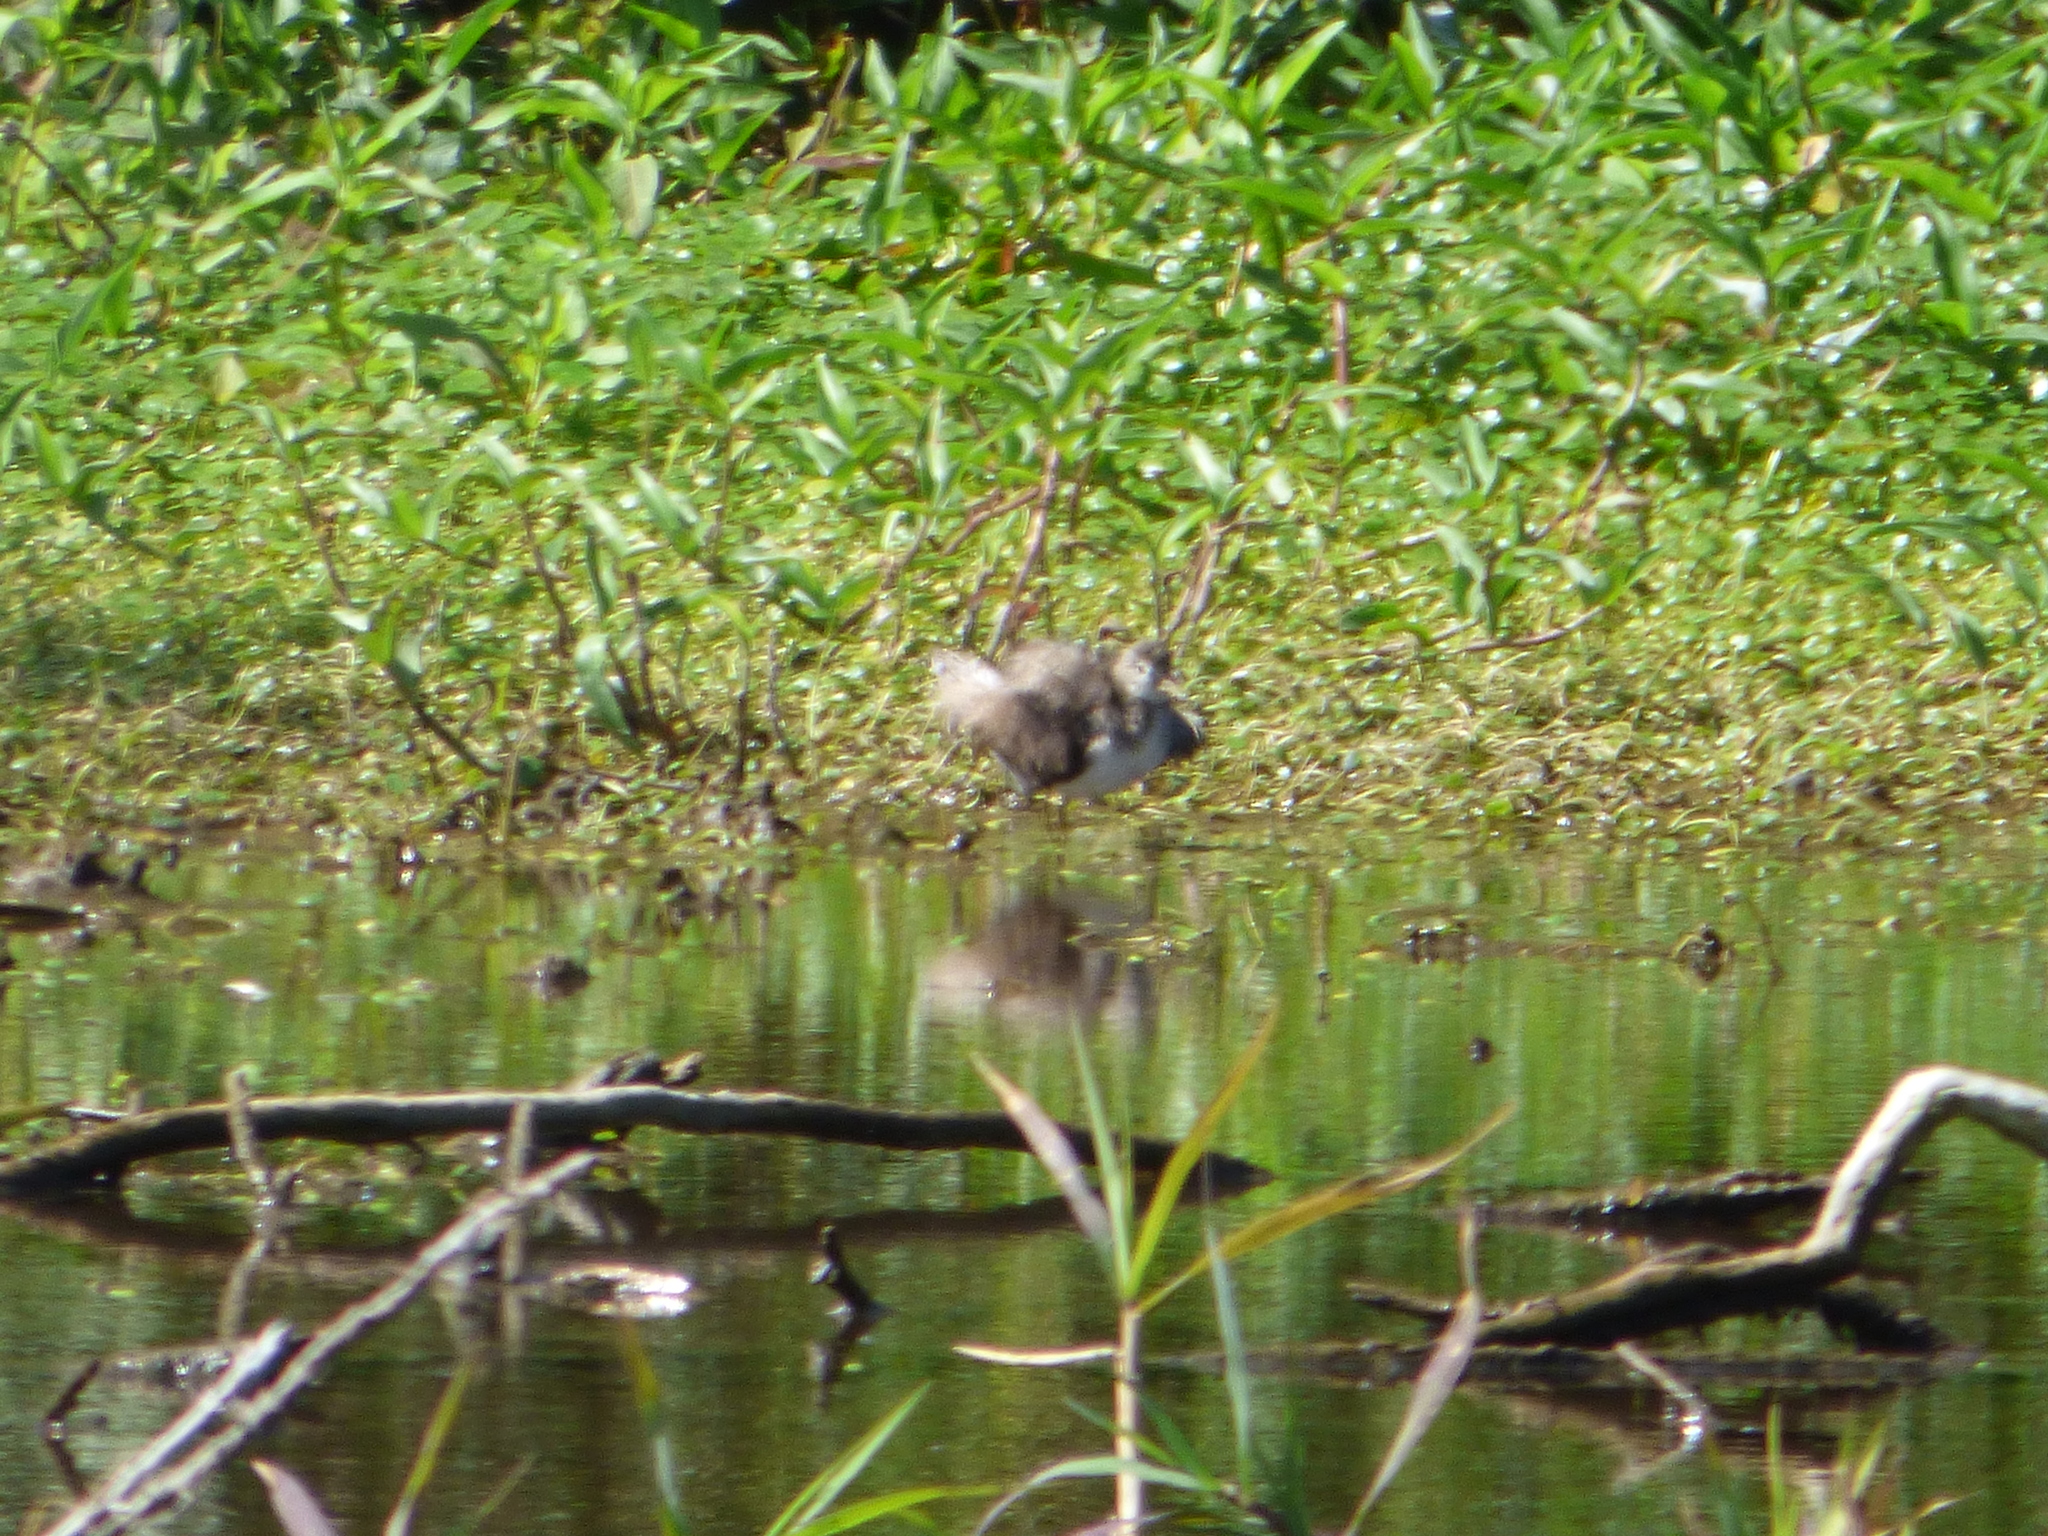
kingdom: Animalia
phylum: Chordata
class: Aves
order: Charadriiformes
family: Scolopacidae
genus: Tringa
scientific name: Tringa solitaria
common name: Solitary sandpiper
